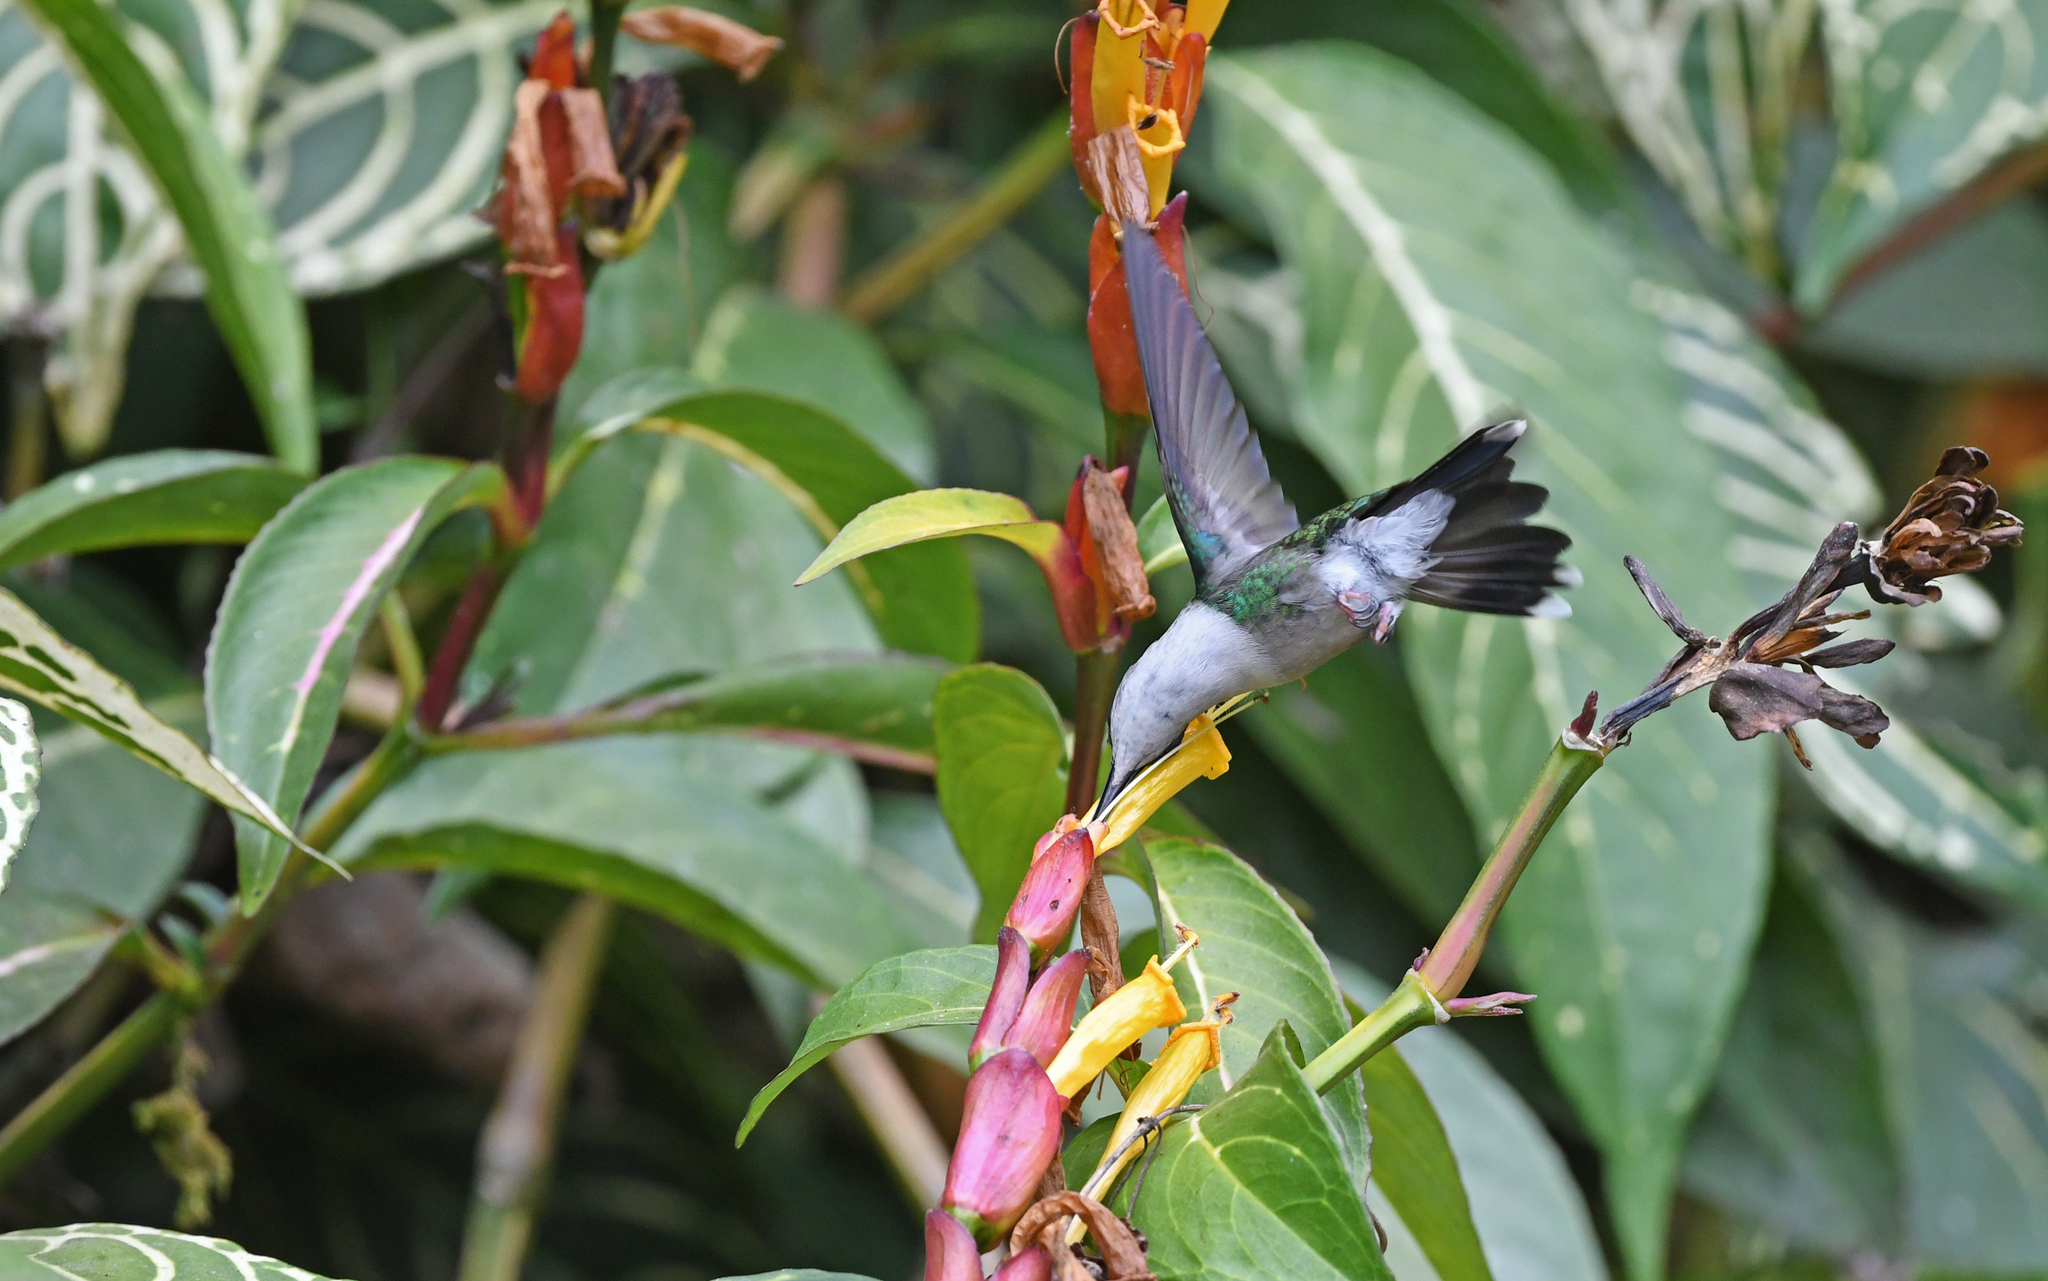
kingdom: Animalia
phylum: Chordata
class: Aves
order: Apodiformes
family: Trochilidae
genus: Thalurania
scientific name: Thalurania colombica
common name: Crowned woodnymph
